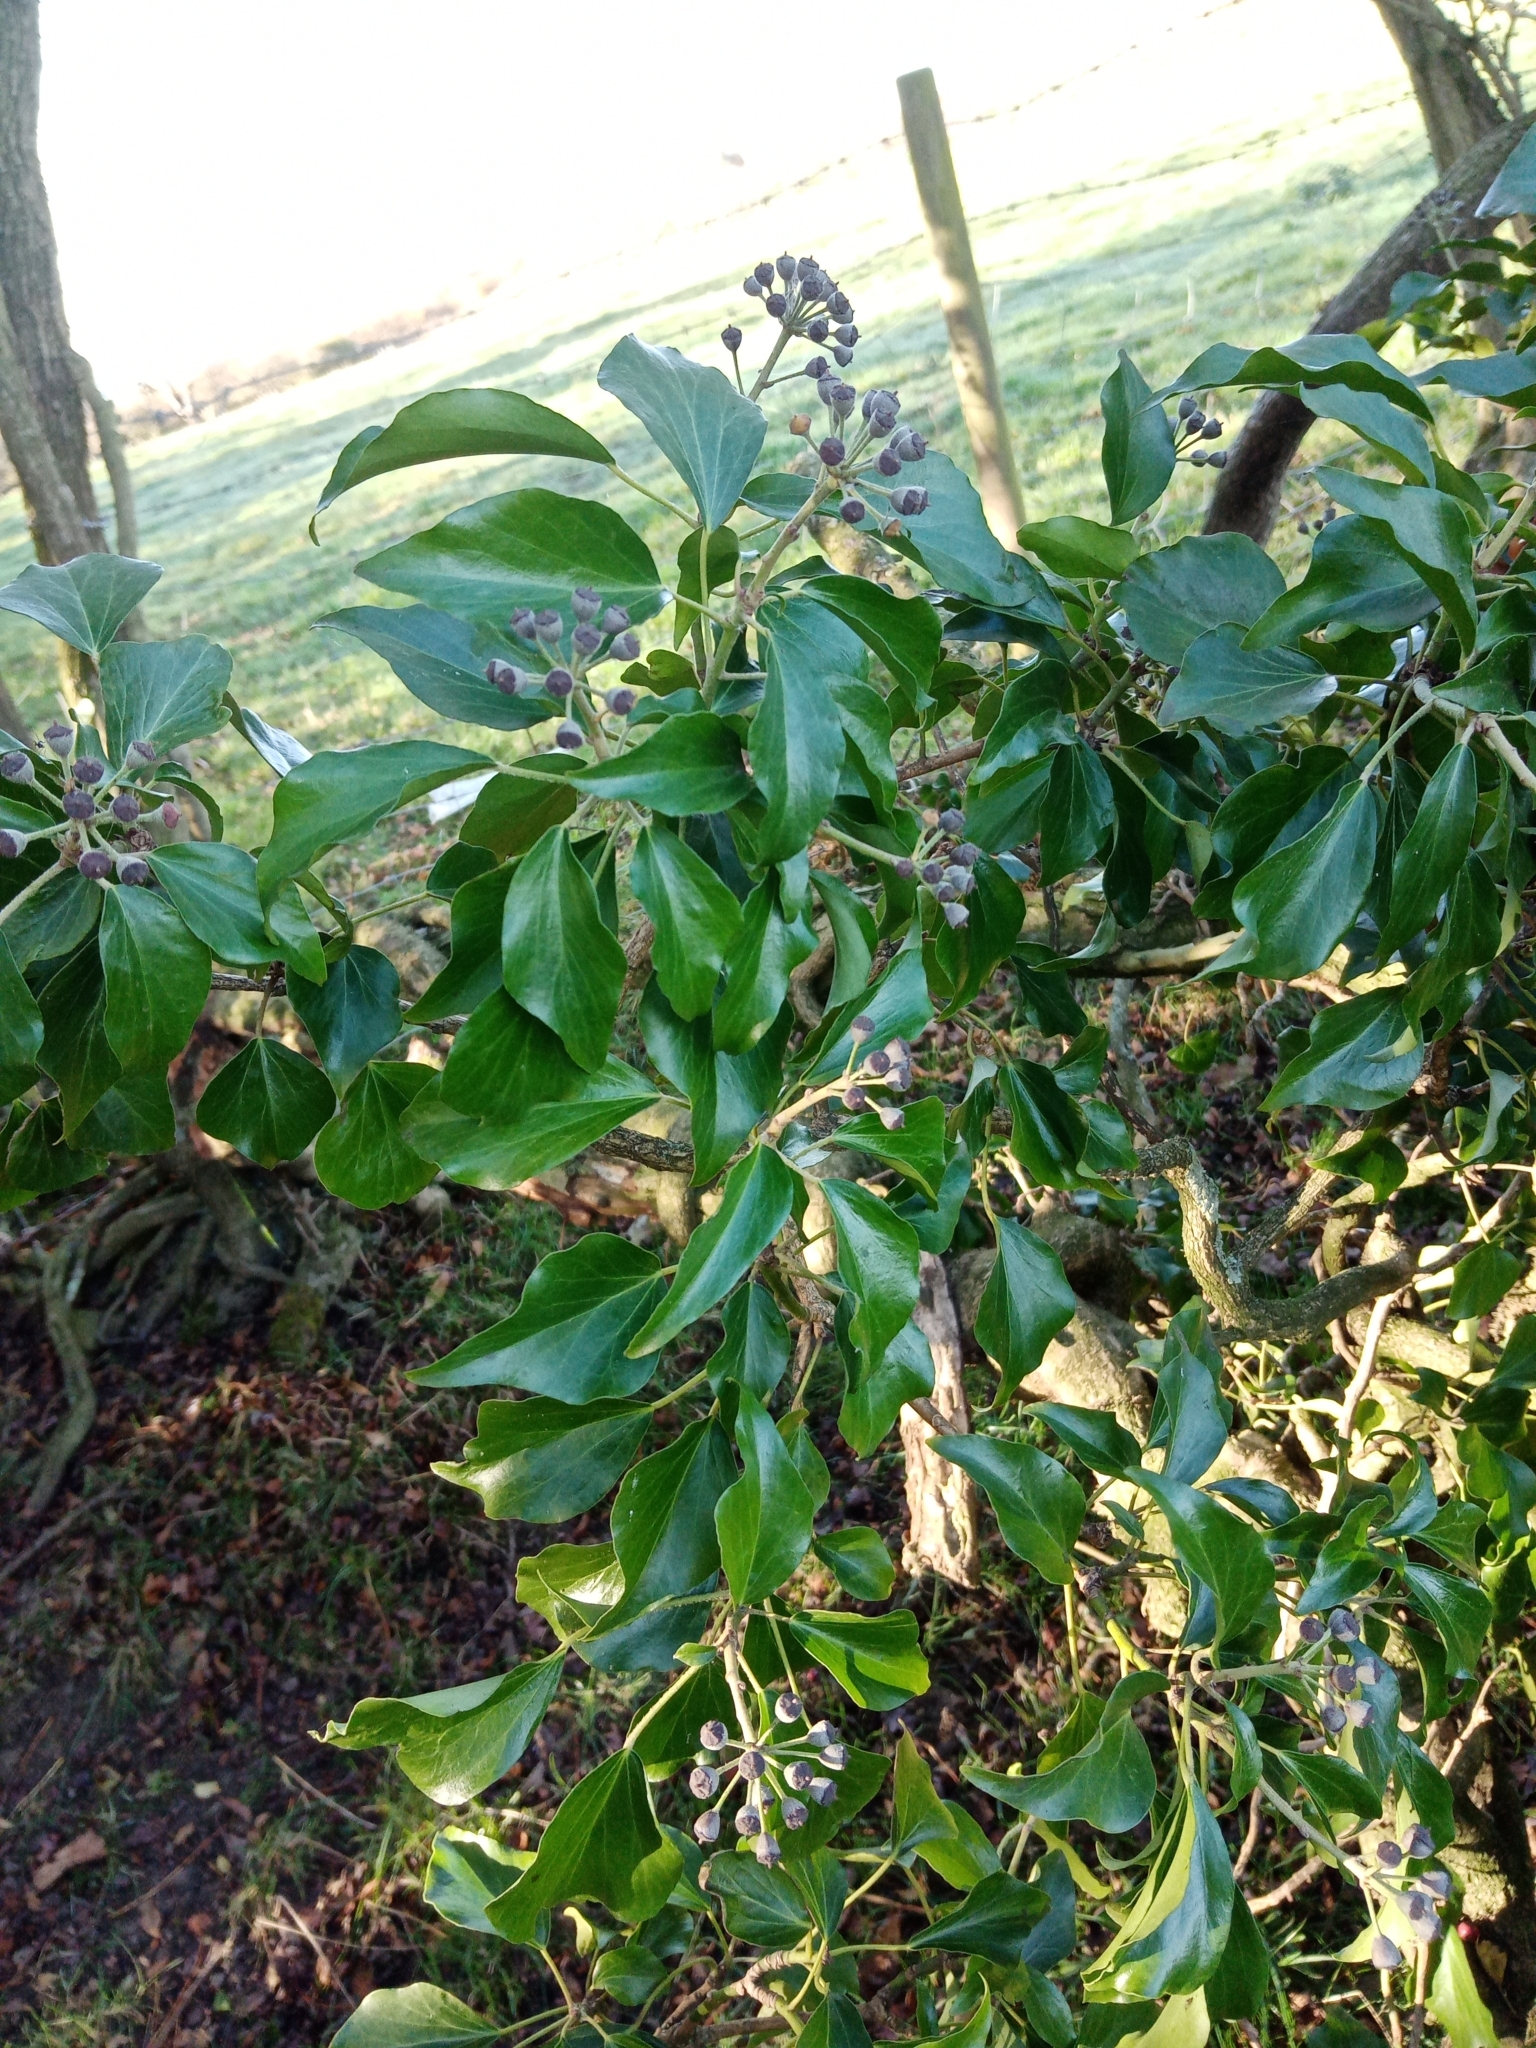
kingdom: Plantae
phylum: Tracheophyta
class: Magnoliopsida
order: Apiales
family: Araliaceae
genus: Hedera
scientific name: Hedera helix
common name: Ivy
